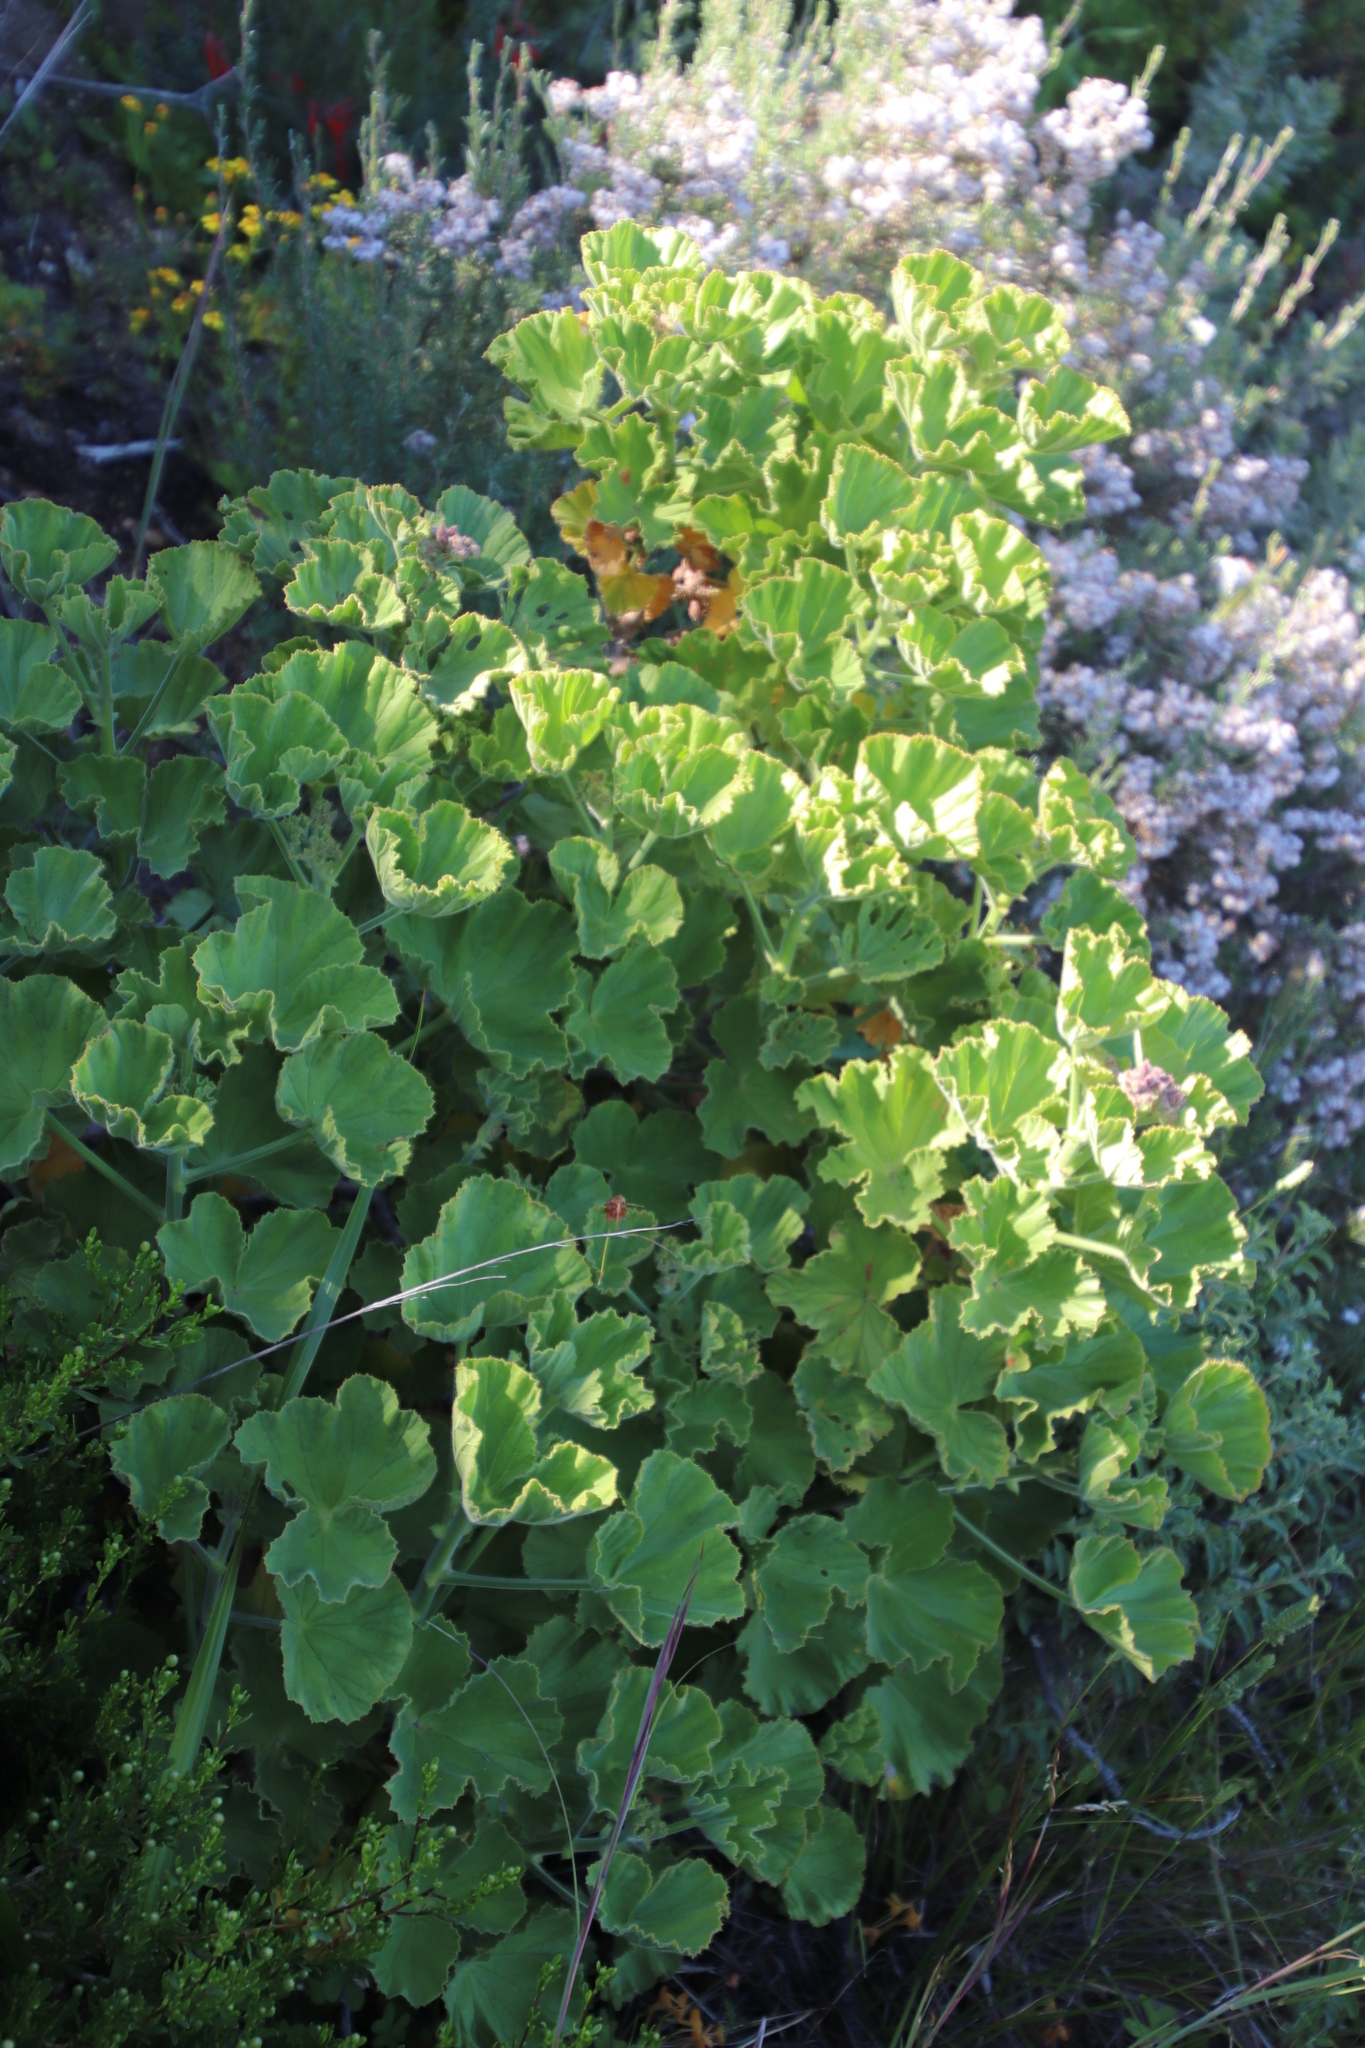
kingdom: Plantae
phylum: Tracheophyta
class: Magnoliopsida
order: Geraniales
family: Geraniaceae
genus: Pelargonium
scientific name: Pelargonium cucullatum
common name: Tree pelargonium
